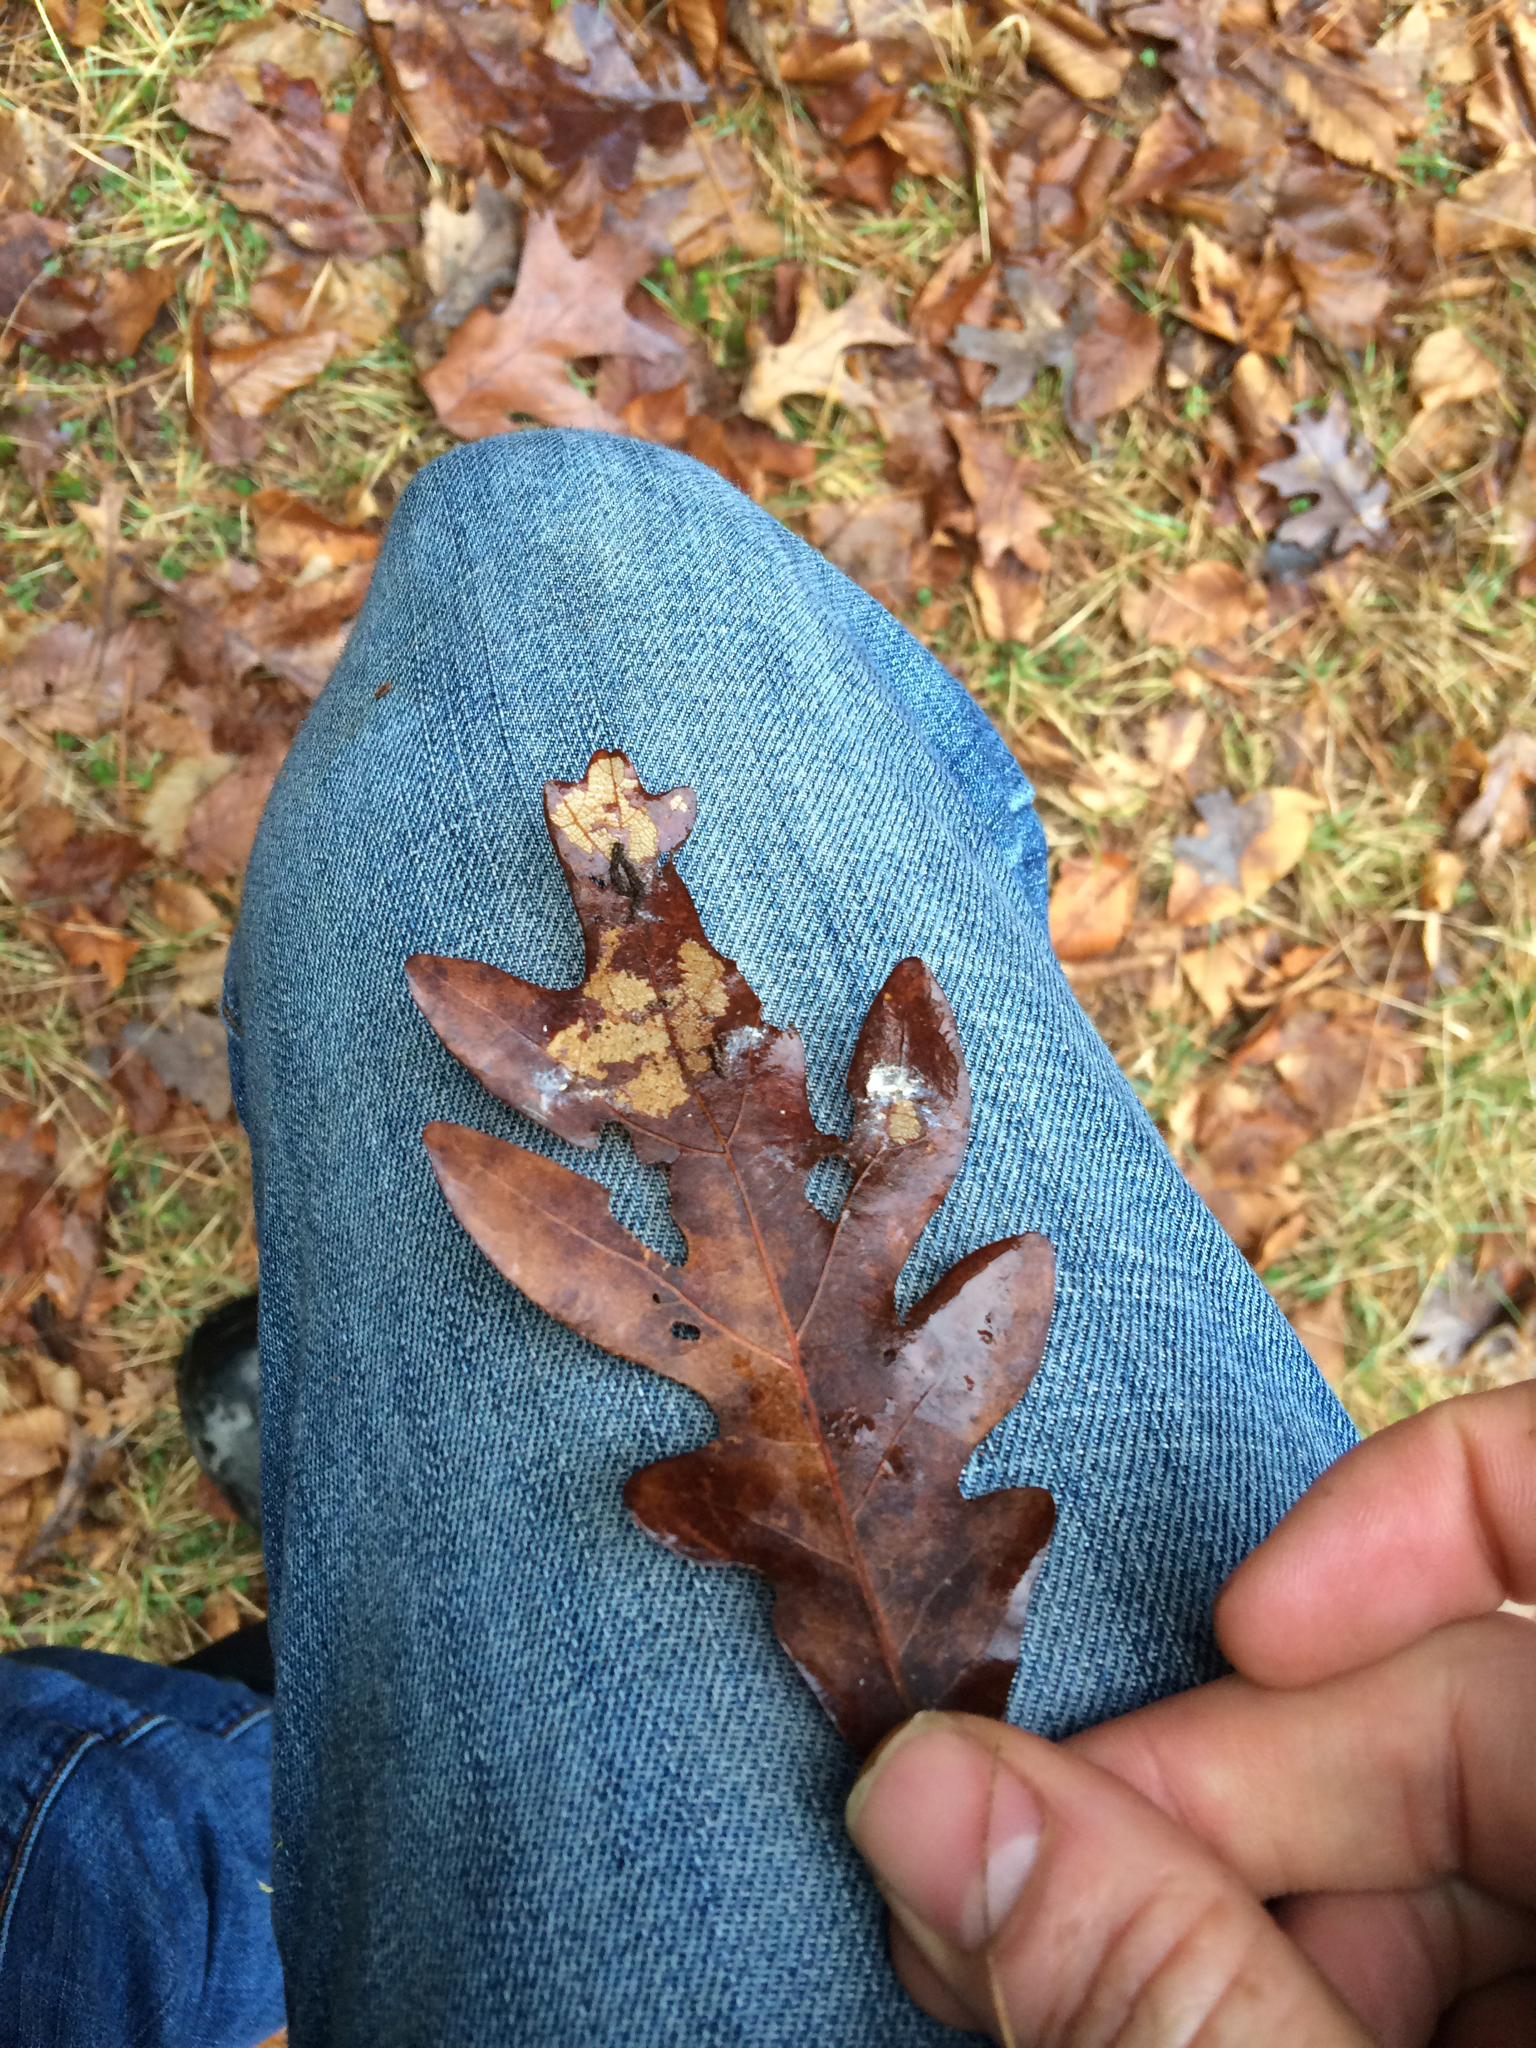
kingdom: Plantae
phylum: Tracheophyta
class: Magnoliopsida
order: Fagales
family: Fagaceae
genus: Quercus
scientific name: Quercus alba
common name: White oak
